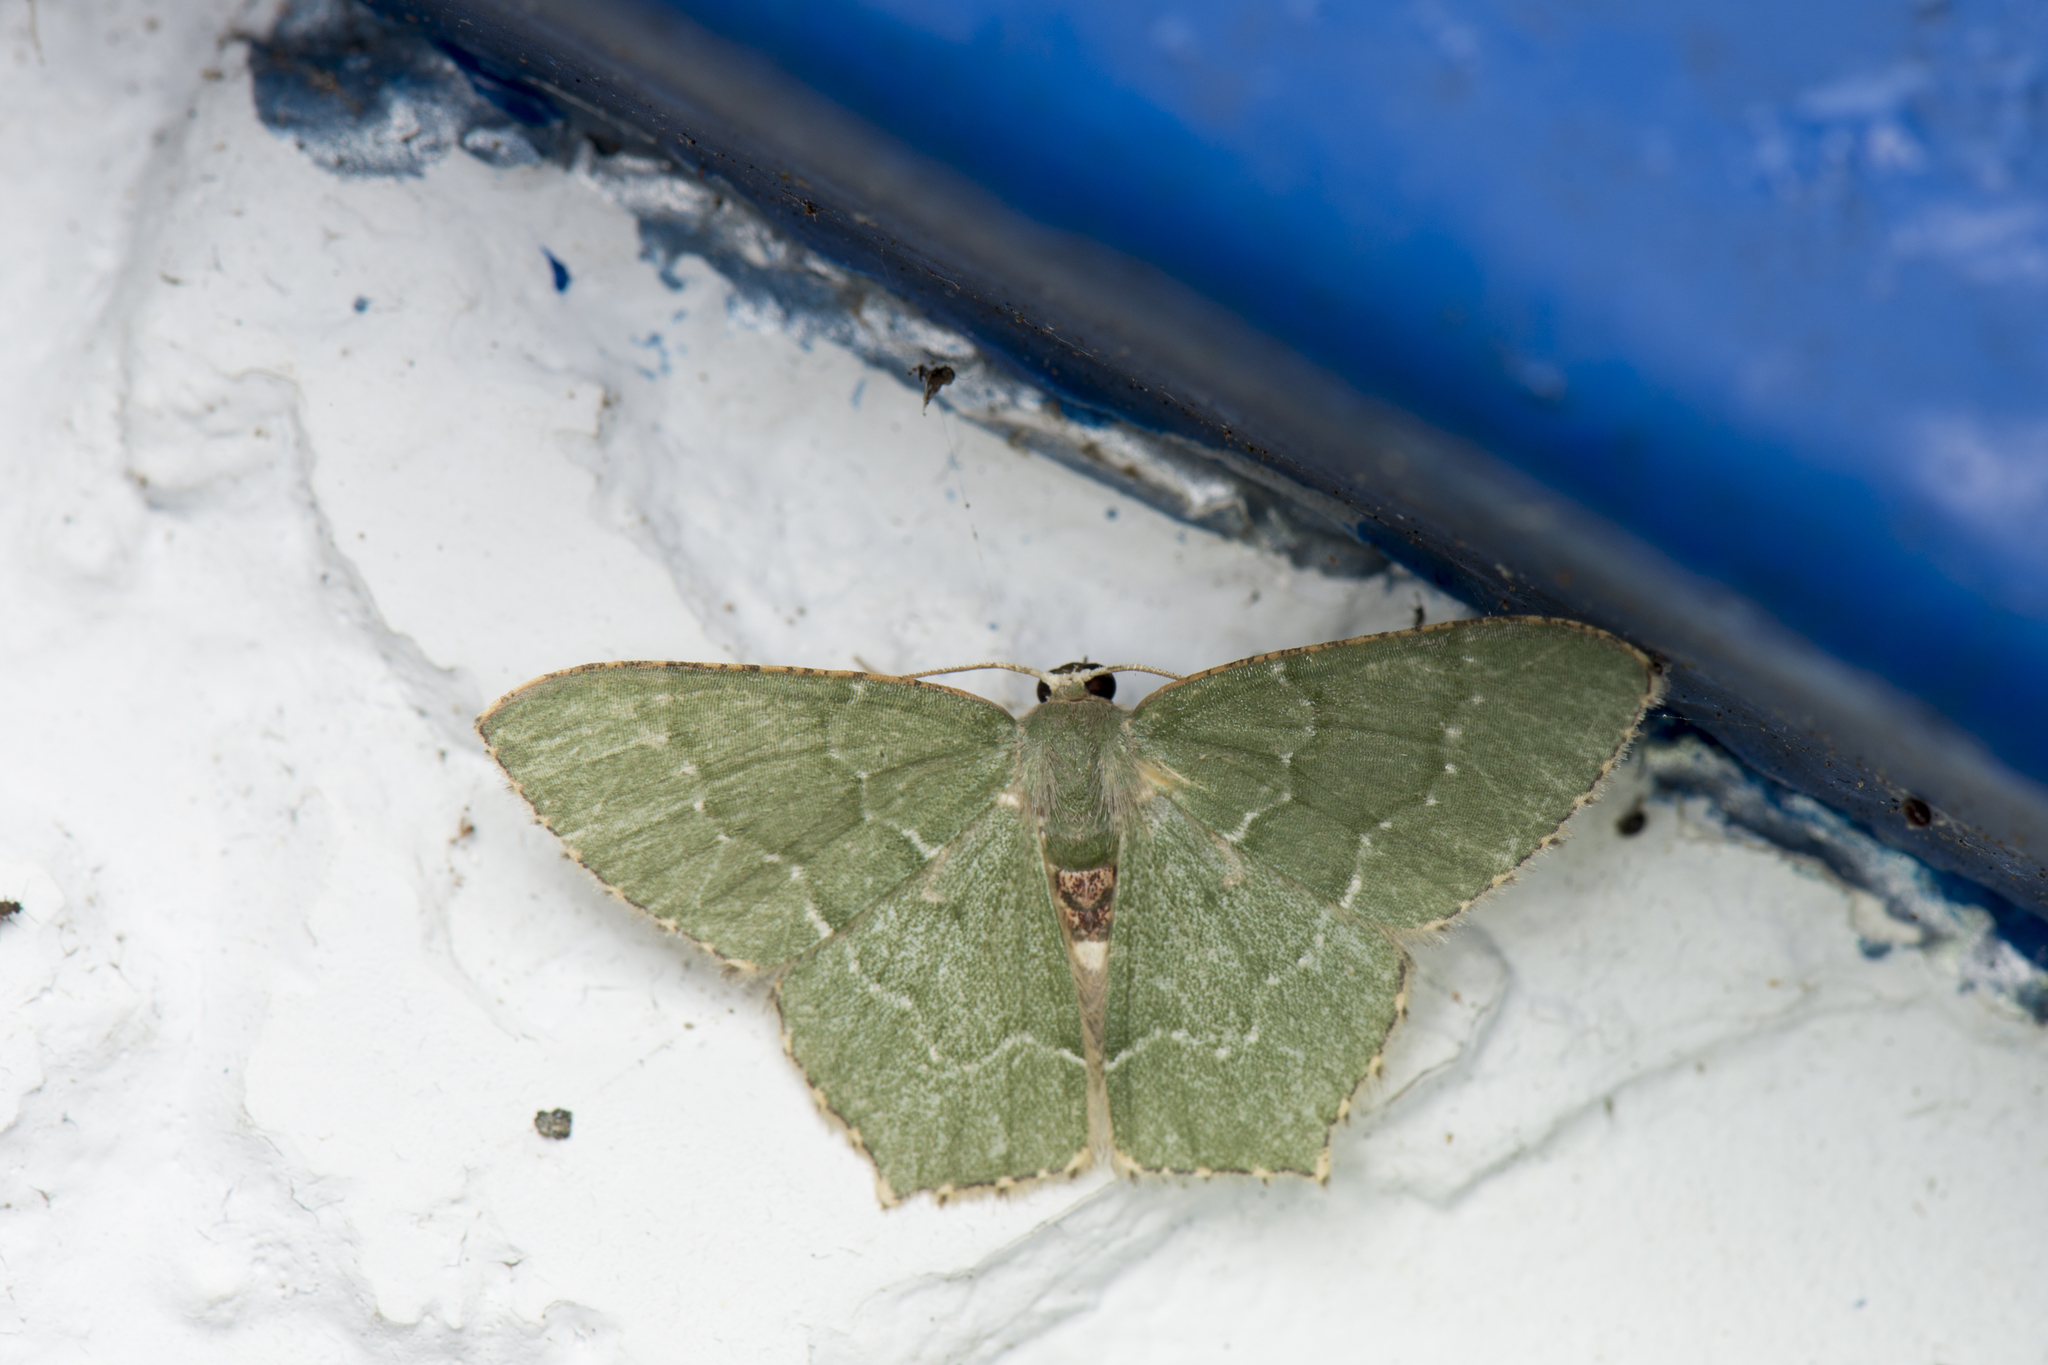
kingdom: Animalia
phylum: Arthropoda
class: Insecta
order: Lepidoptera
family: Geometridae
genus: Hemithea
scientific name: Hemithea tritonaria
